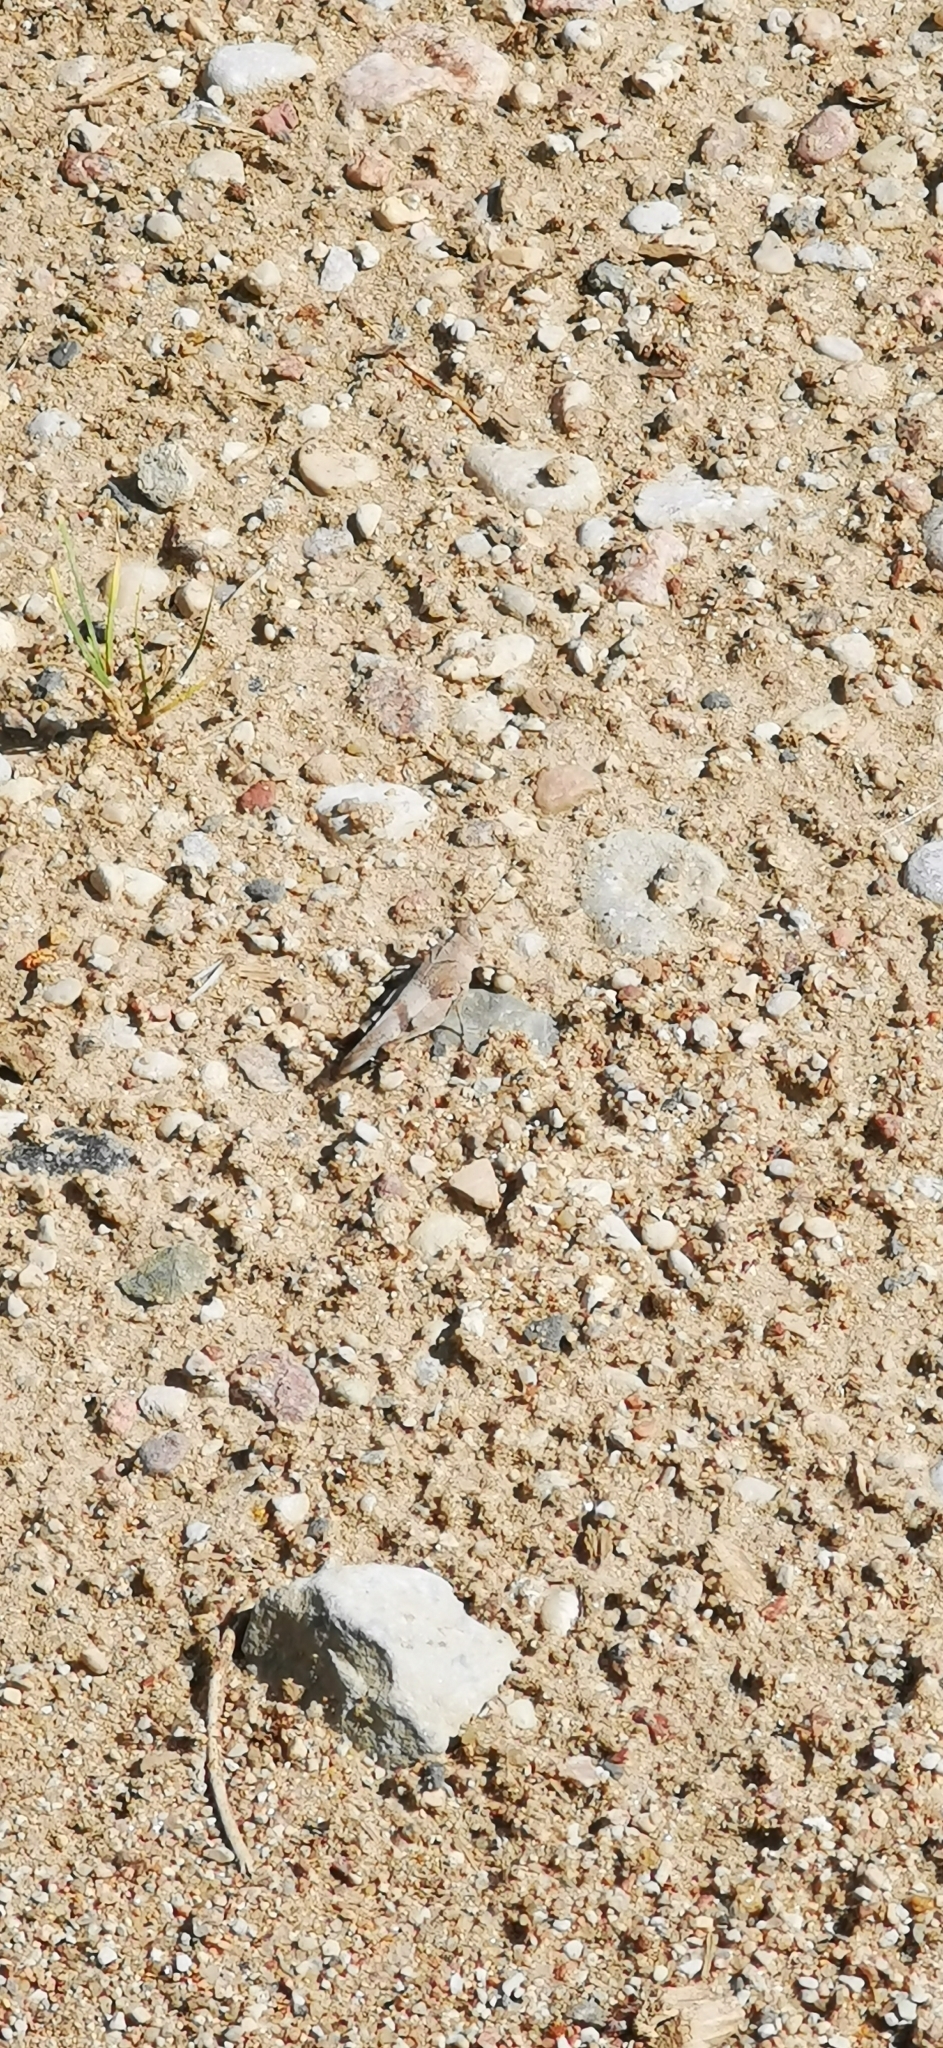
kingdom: Animalia
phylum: Arthropoda
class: Insecta
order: Orthoptera
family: Acrididae
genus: Oedipoda
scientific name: Oedipoda caerulescens
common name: Blue-winged grasshopper
